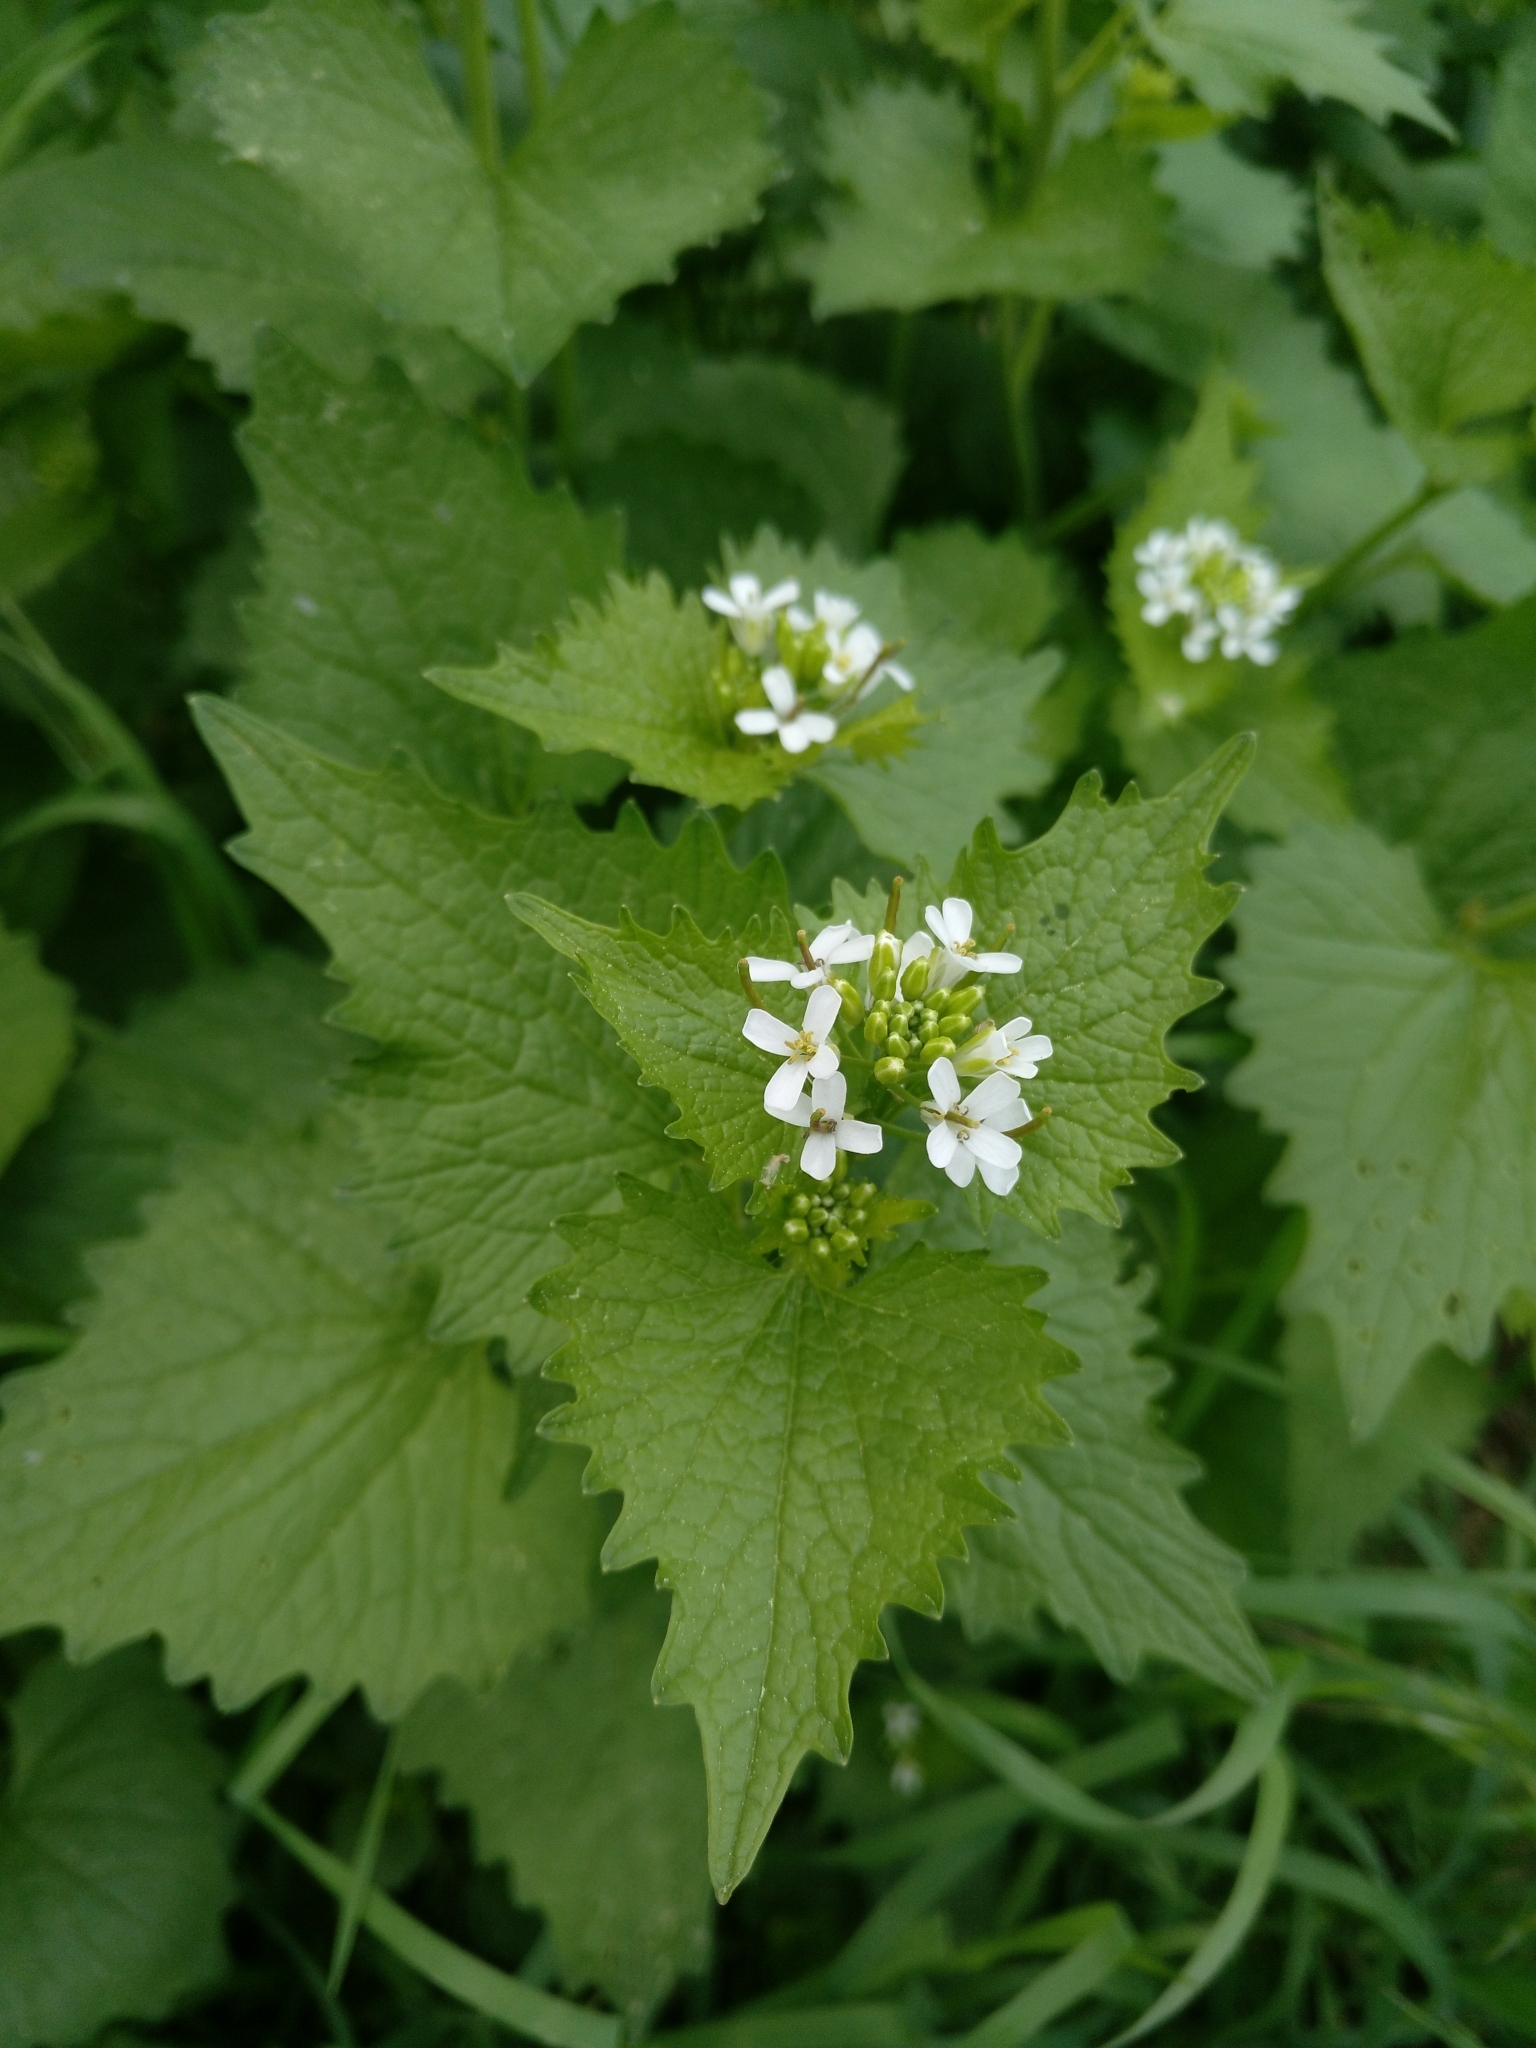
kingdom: Plantae
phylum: Tracheophyta
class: Magnoliopsida
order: Brassicales
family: Brassicaceae
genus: Alliaria
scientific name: Alliaria petiolata
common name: Garlic mustard
